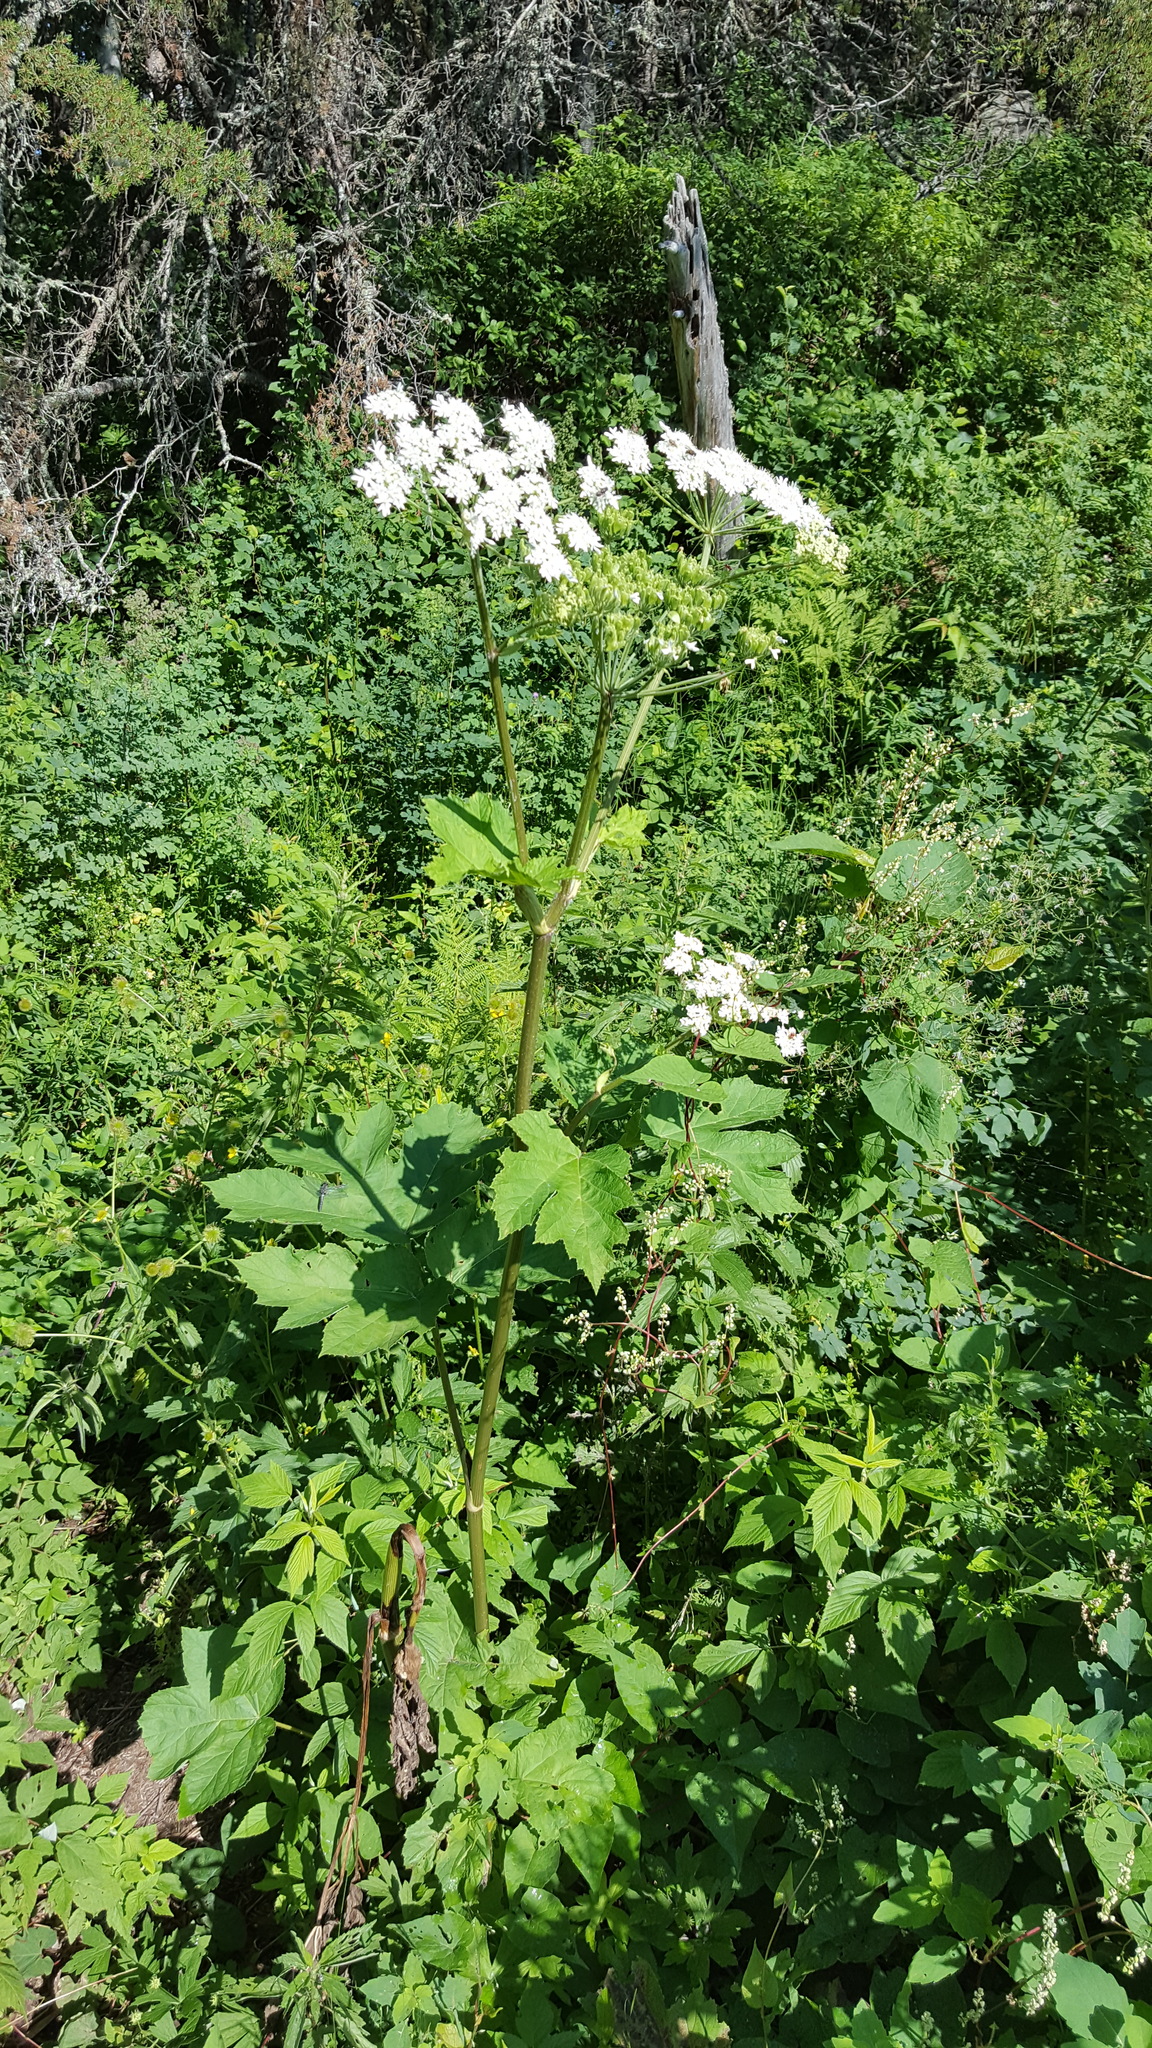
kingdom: Plantae
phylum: Tracheophyta
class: Magnoliopsida
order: Apiales
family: Apiaceae
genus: Heracleum
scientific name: Heracleum maximum
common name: American cow parsnip
